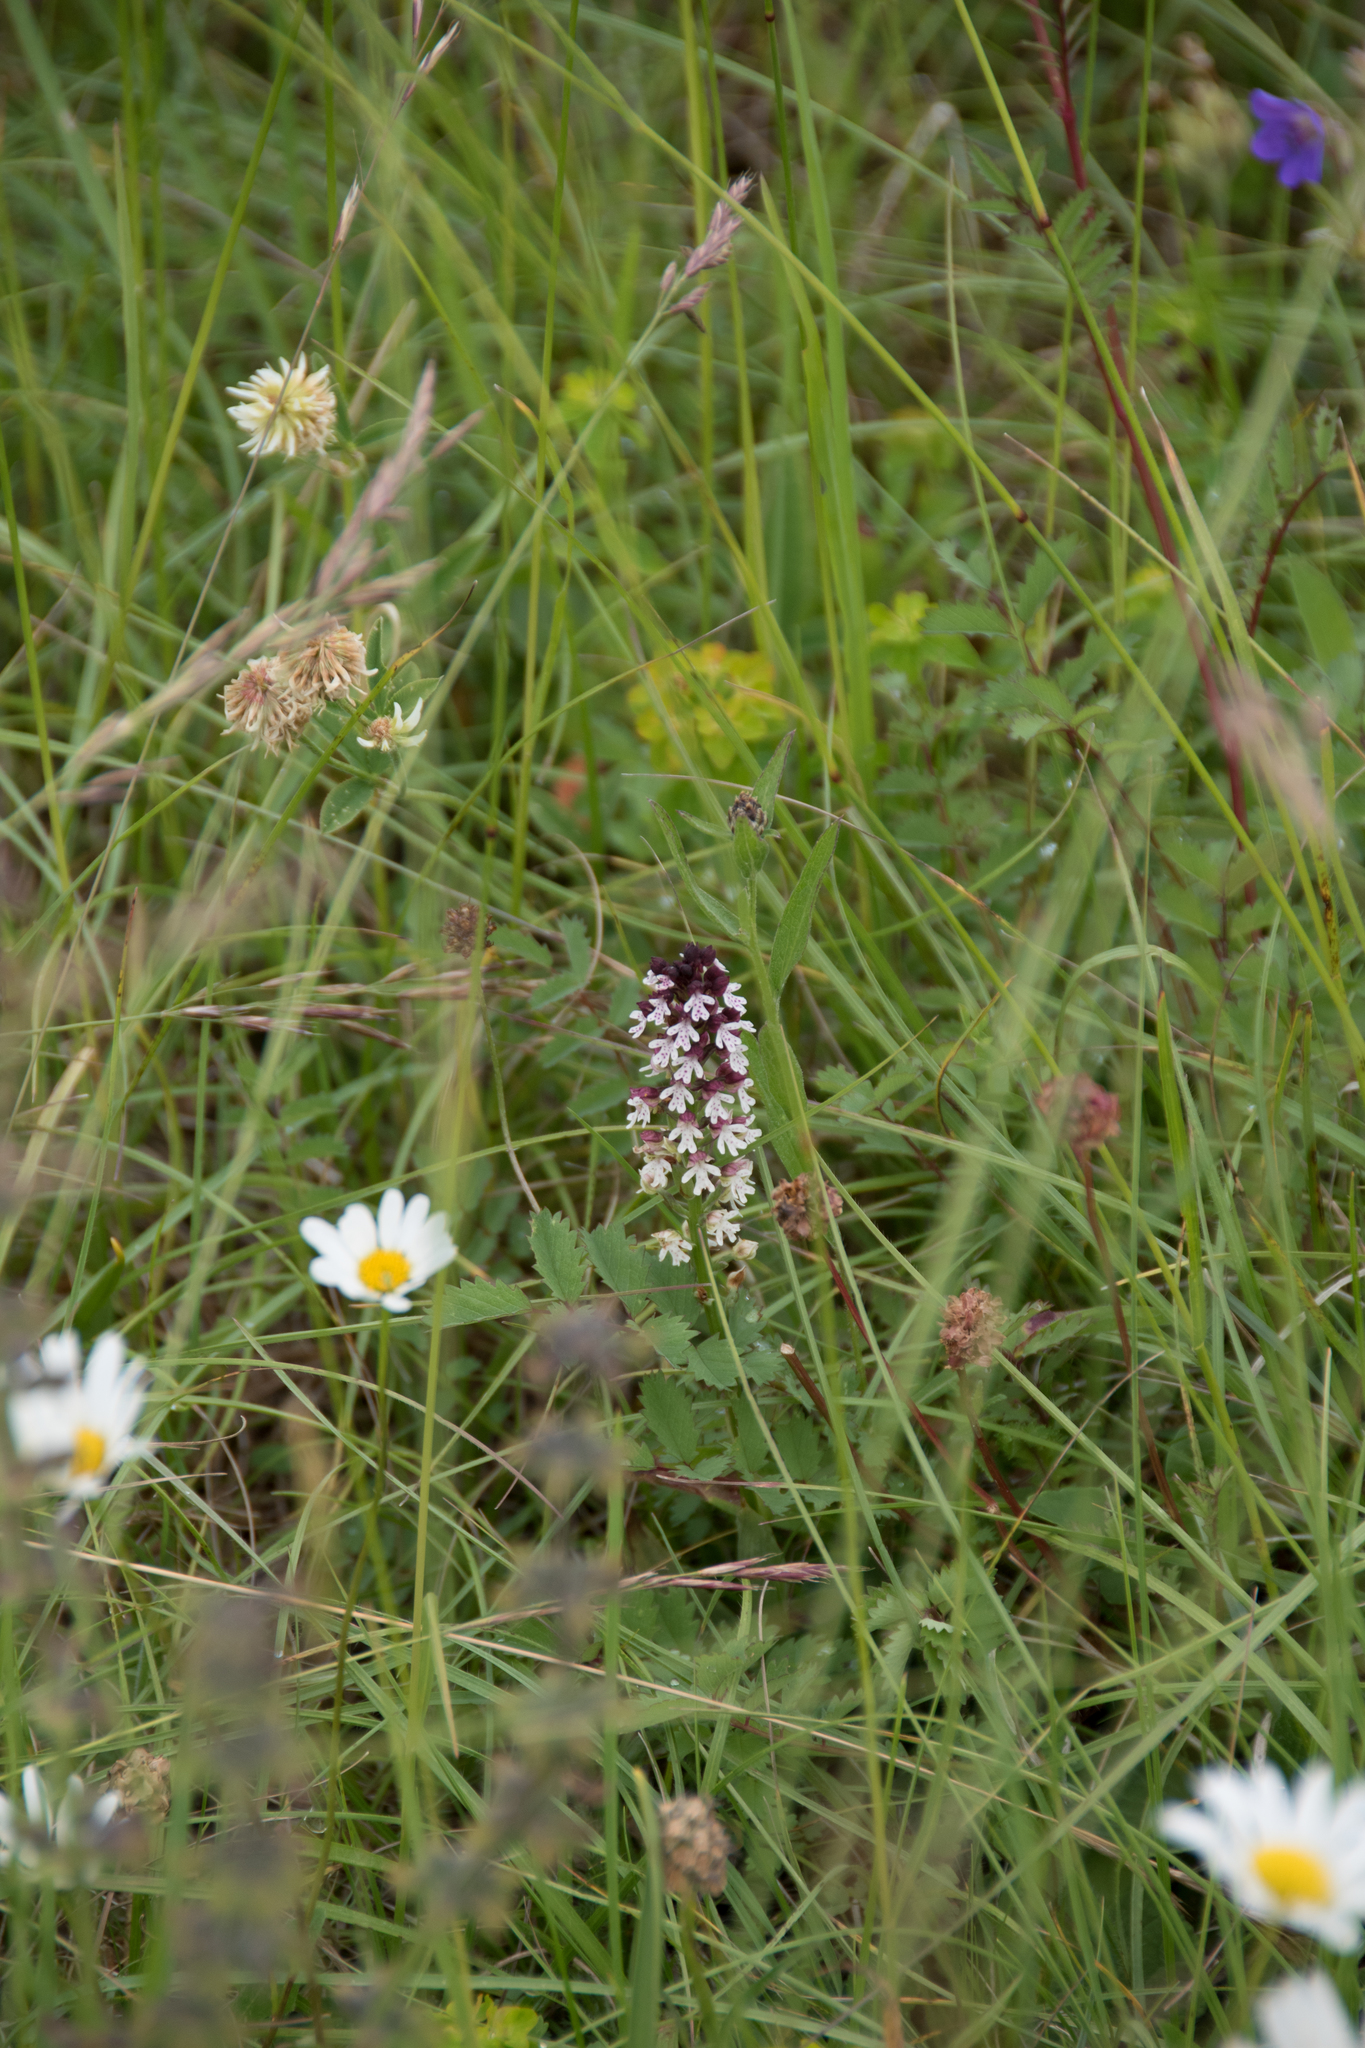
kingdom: Plantae
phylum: Tracheophyta
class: Liliopsida
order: Asparagales
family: Orchidaceae
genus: Neotinea
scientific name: Neotinea ustulata
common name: Burnt orchid
